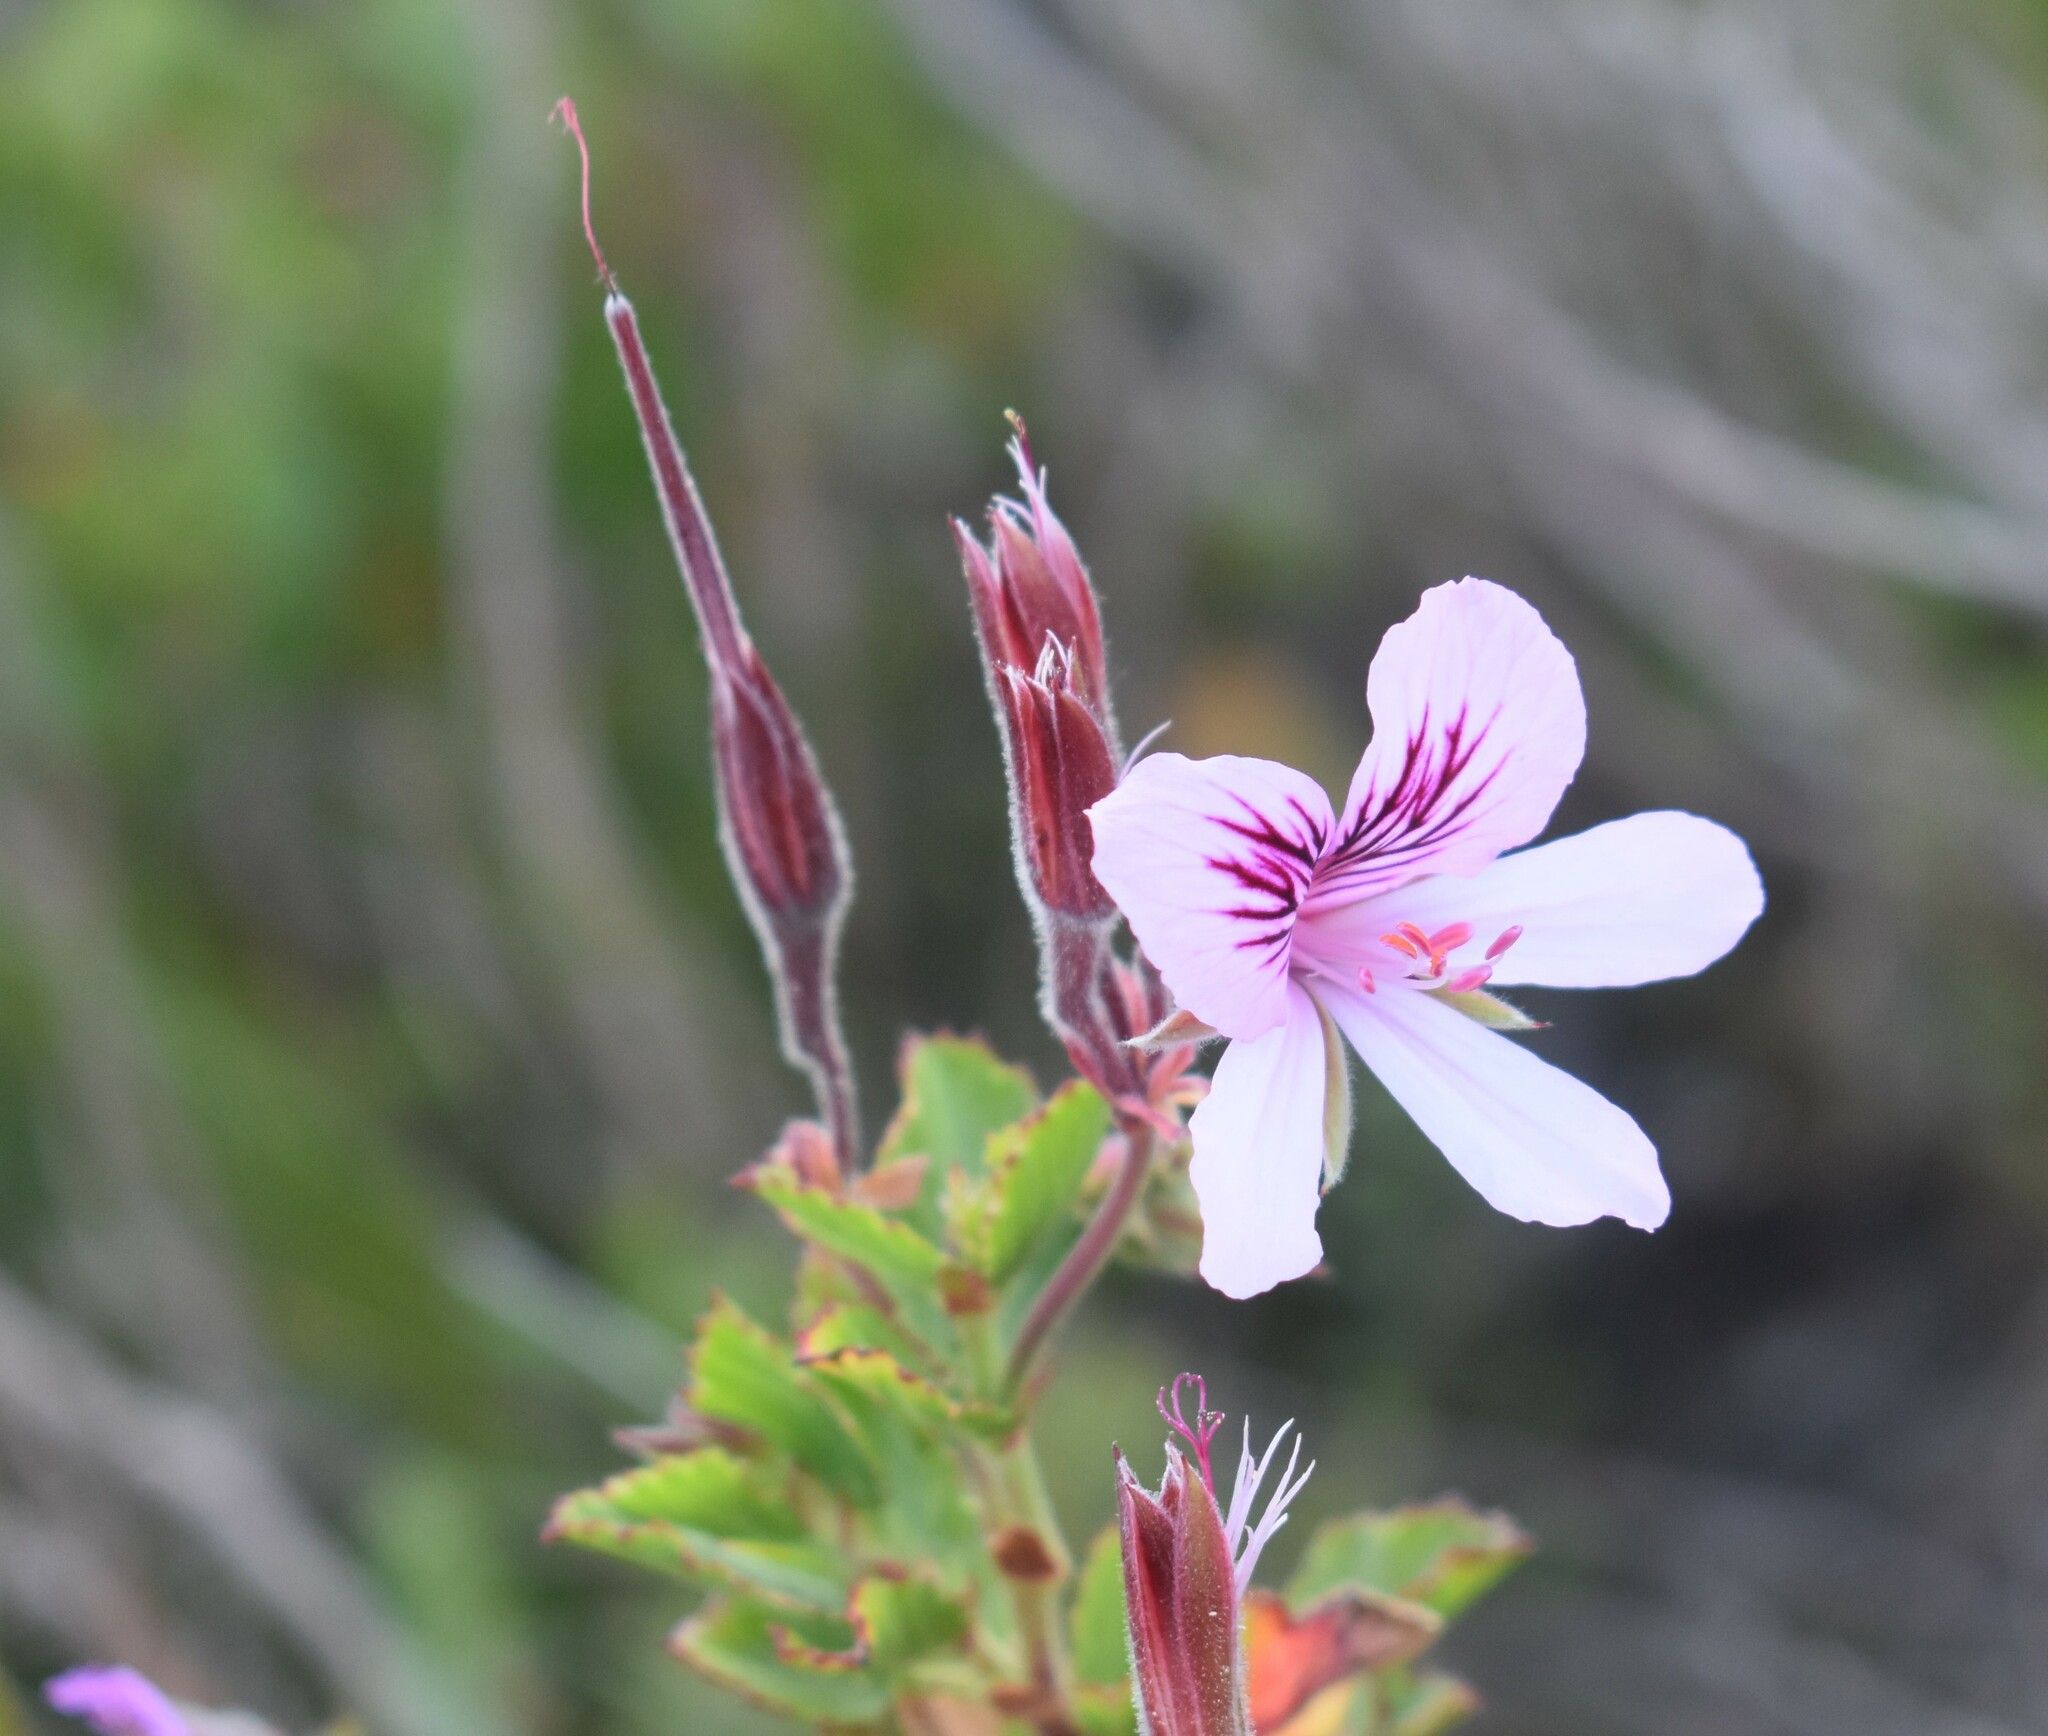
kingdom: Plantae
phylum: Tracheophyta
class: Magnoliopsida
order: Geraniales
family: Geraniaceae
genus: Pelargonium
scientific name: Pelargonium betulinum
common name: Birch-leaf pelargonium
